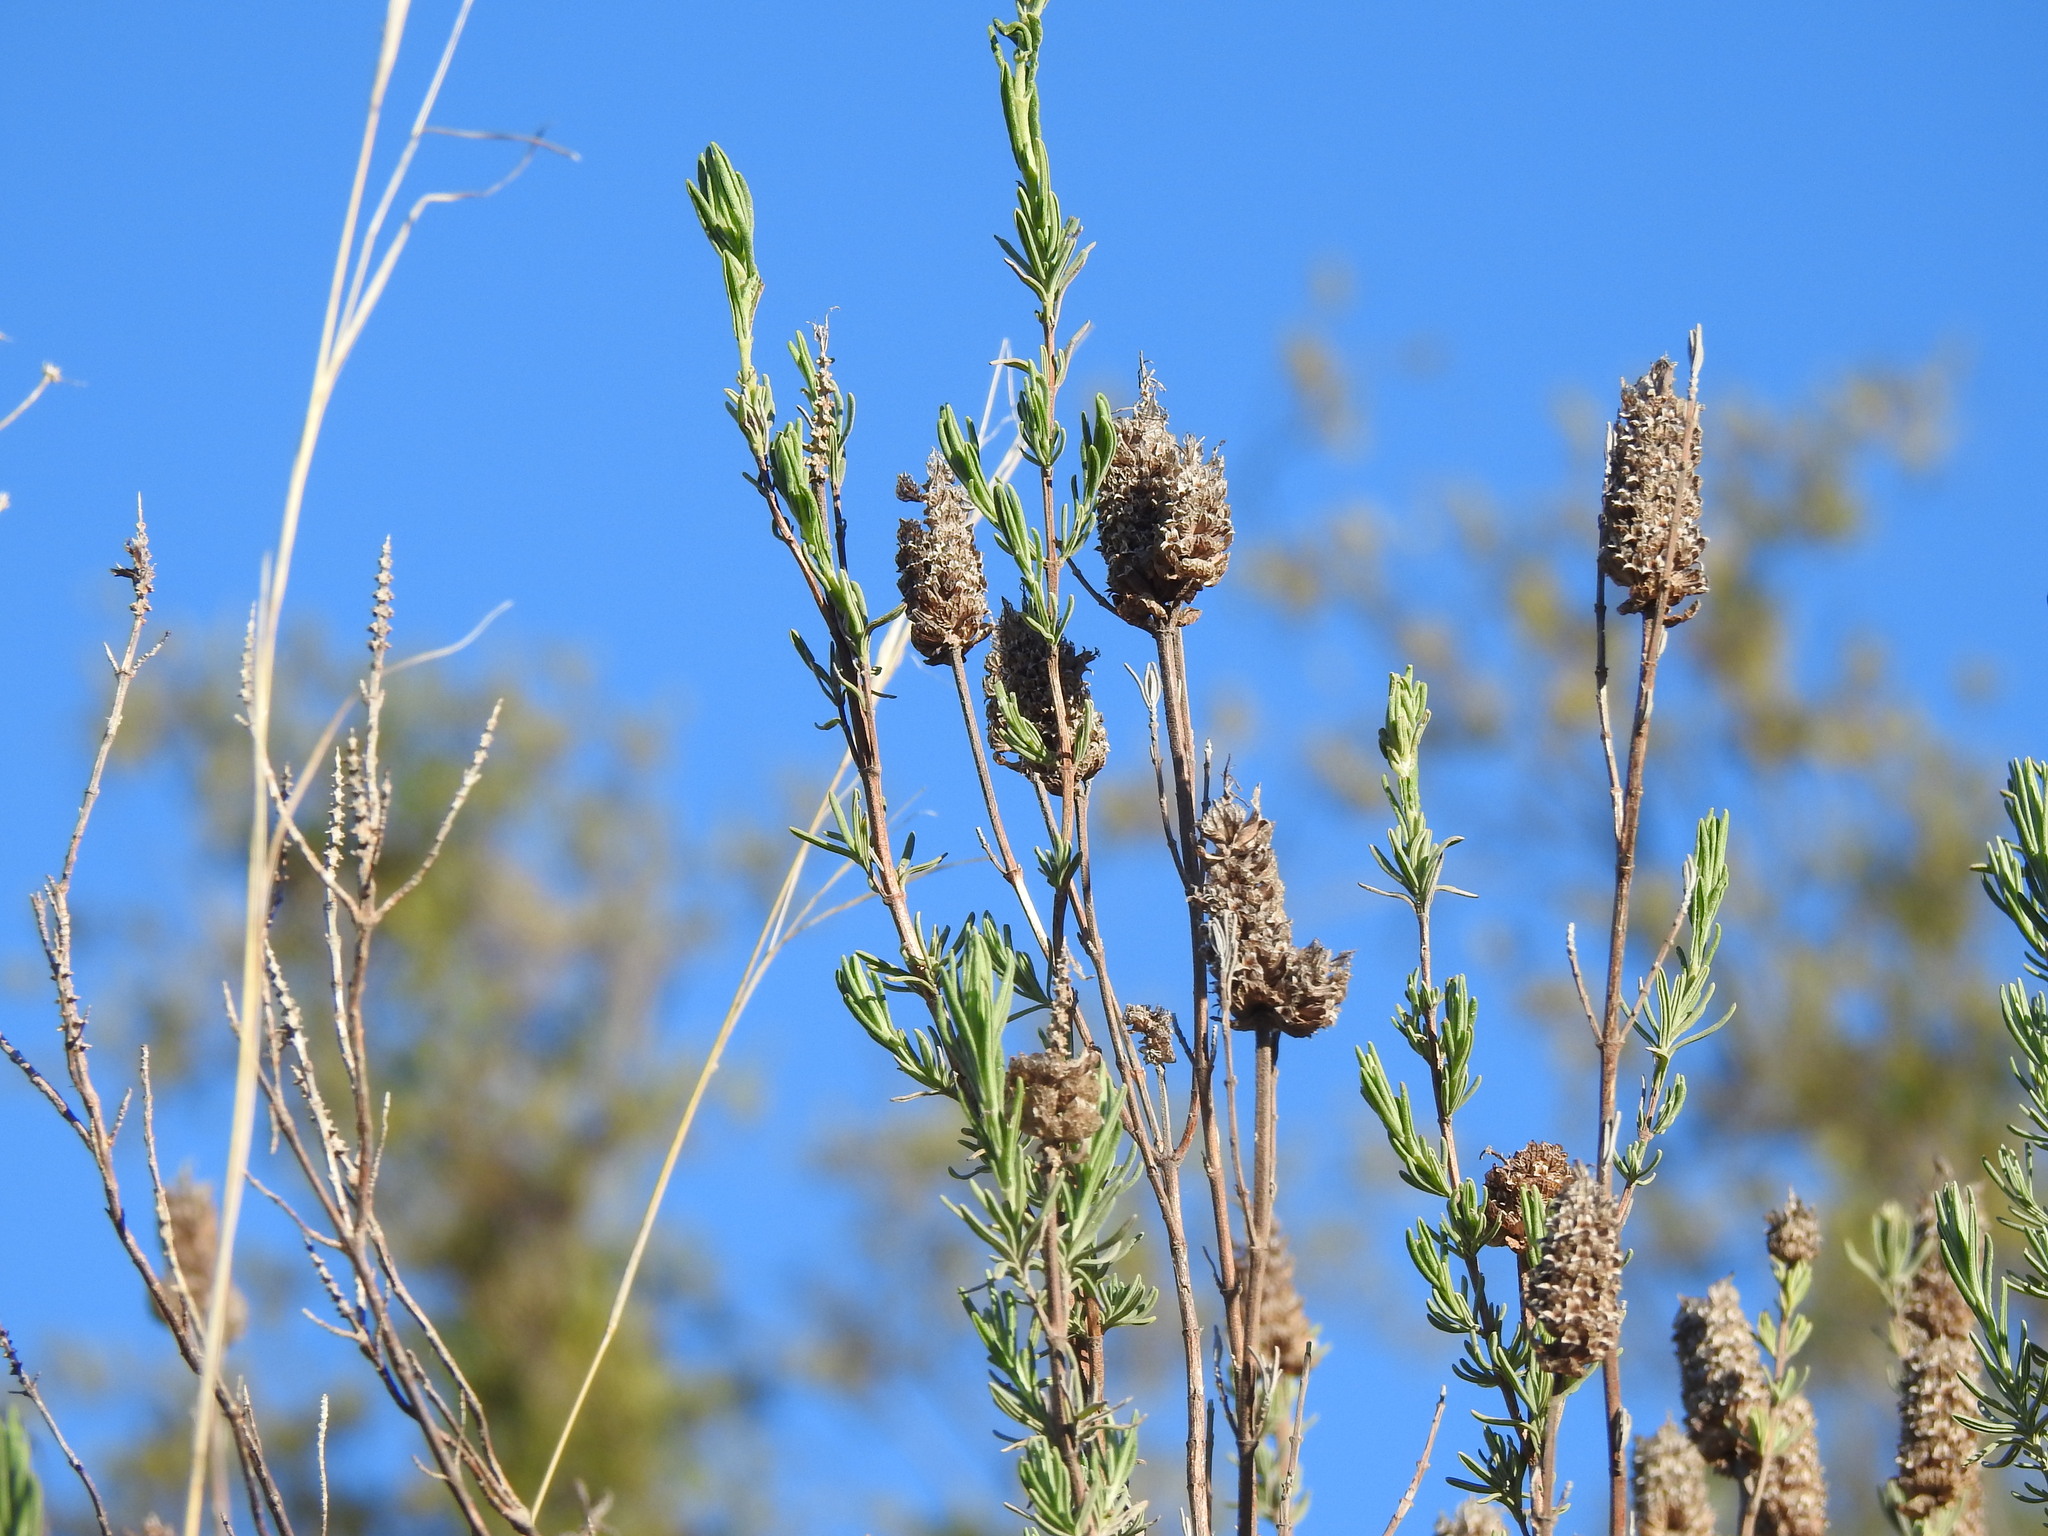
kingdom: Plantae
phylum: Tracheophyta
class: Magnoliopsida
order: Lamiales
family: Lamiaceae
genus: Lavandula
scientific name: Lavandula stoechas
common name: French lavender
